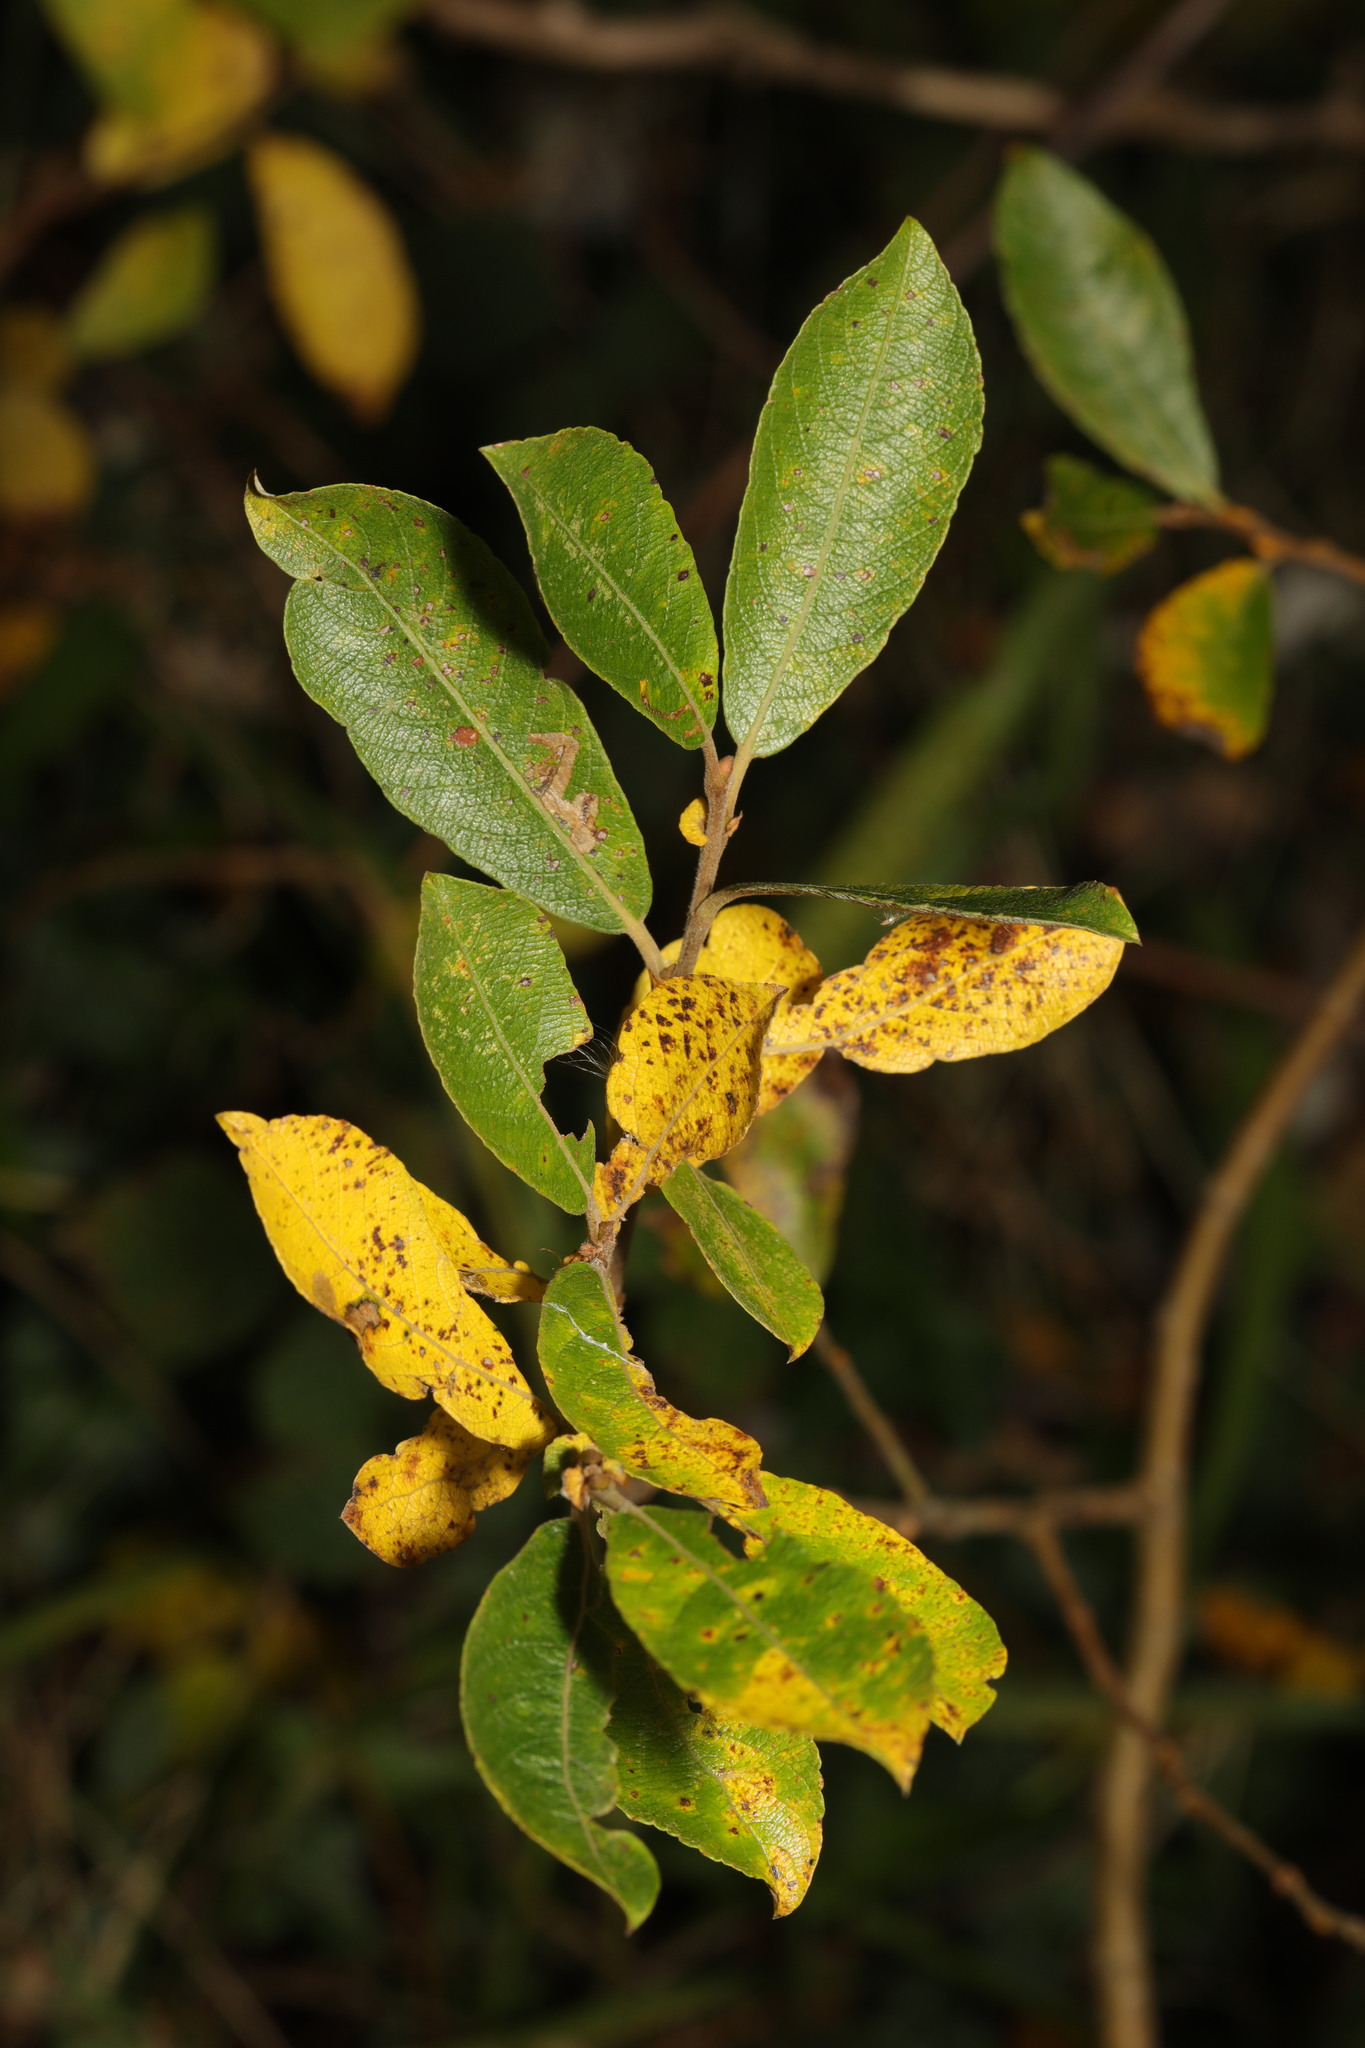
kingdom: Plantae
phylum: Tracheophyta
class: Magnoliopsida
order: Malpighiales
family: Salicaceae
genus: Salix
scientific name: Salix cinerea
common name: Common sallow
